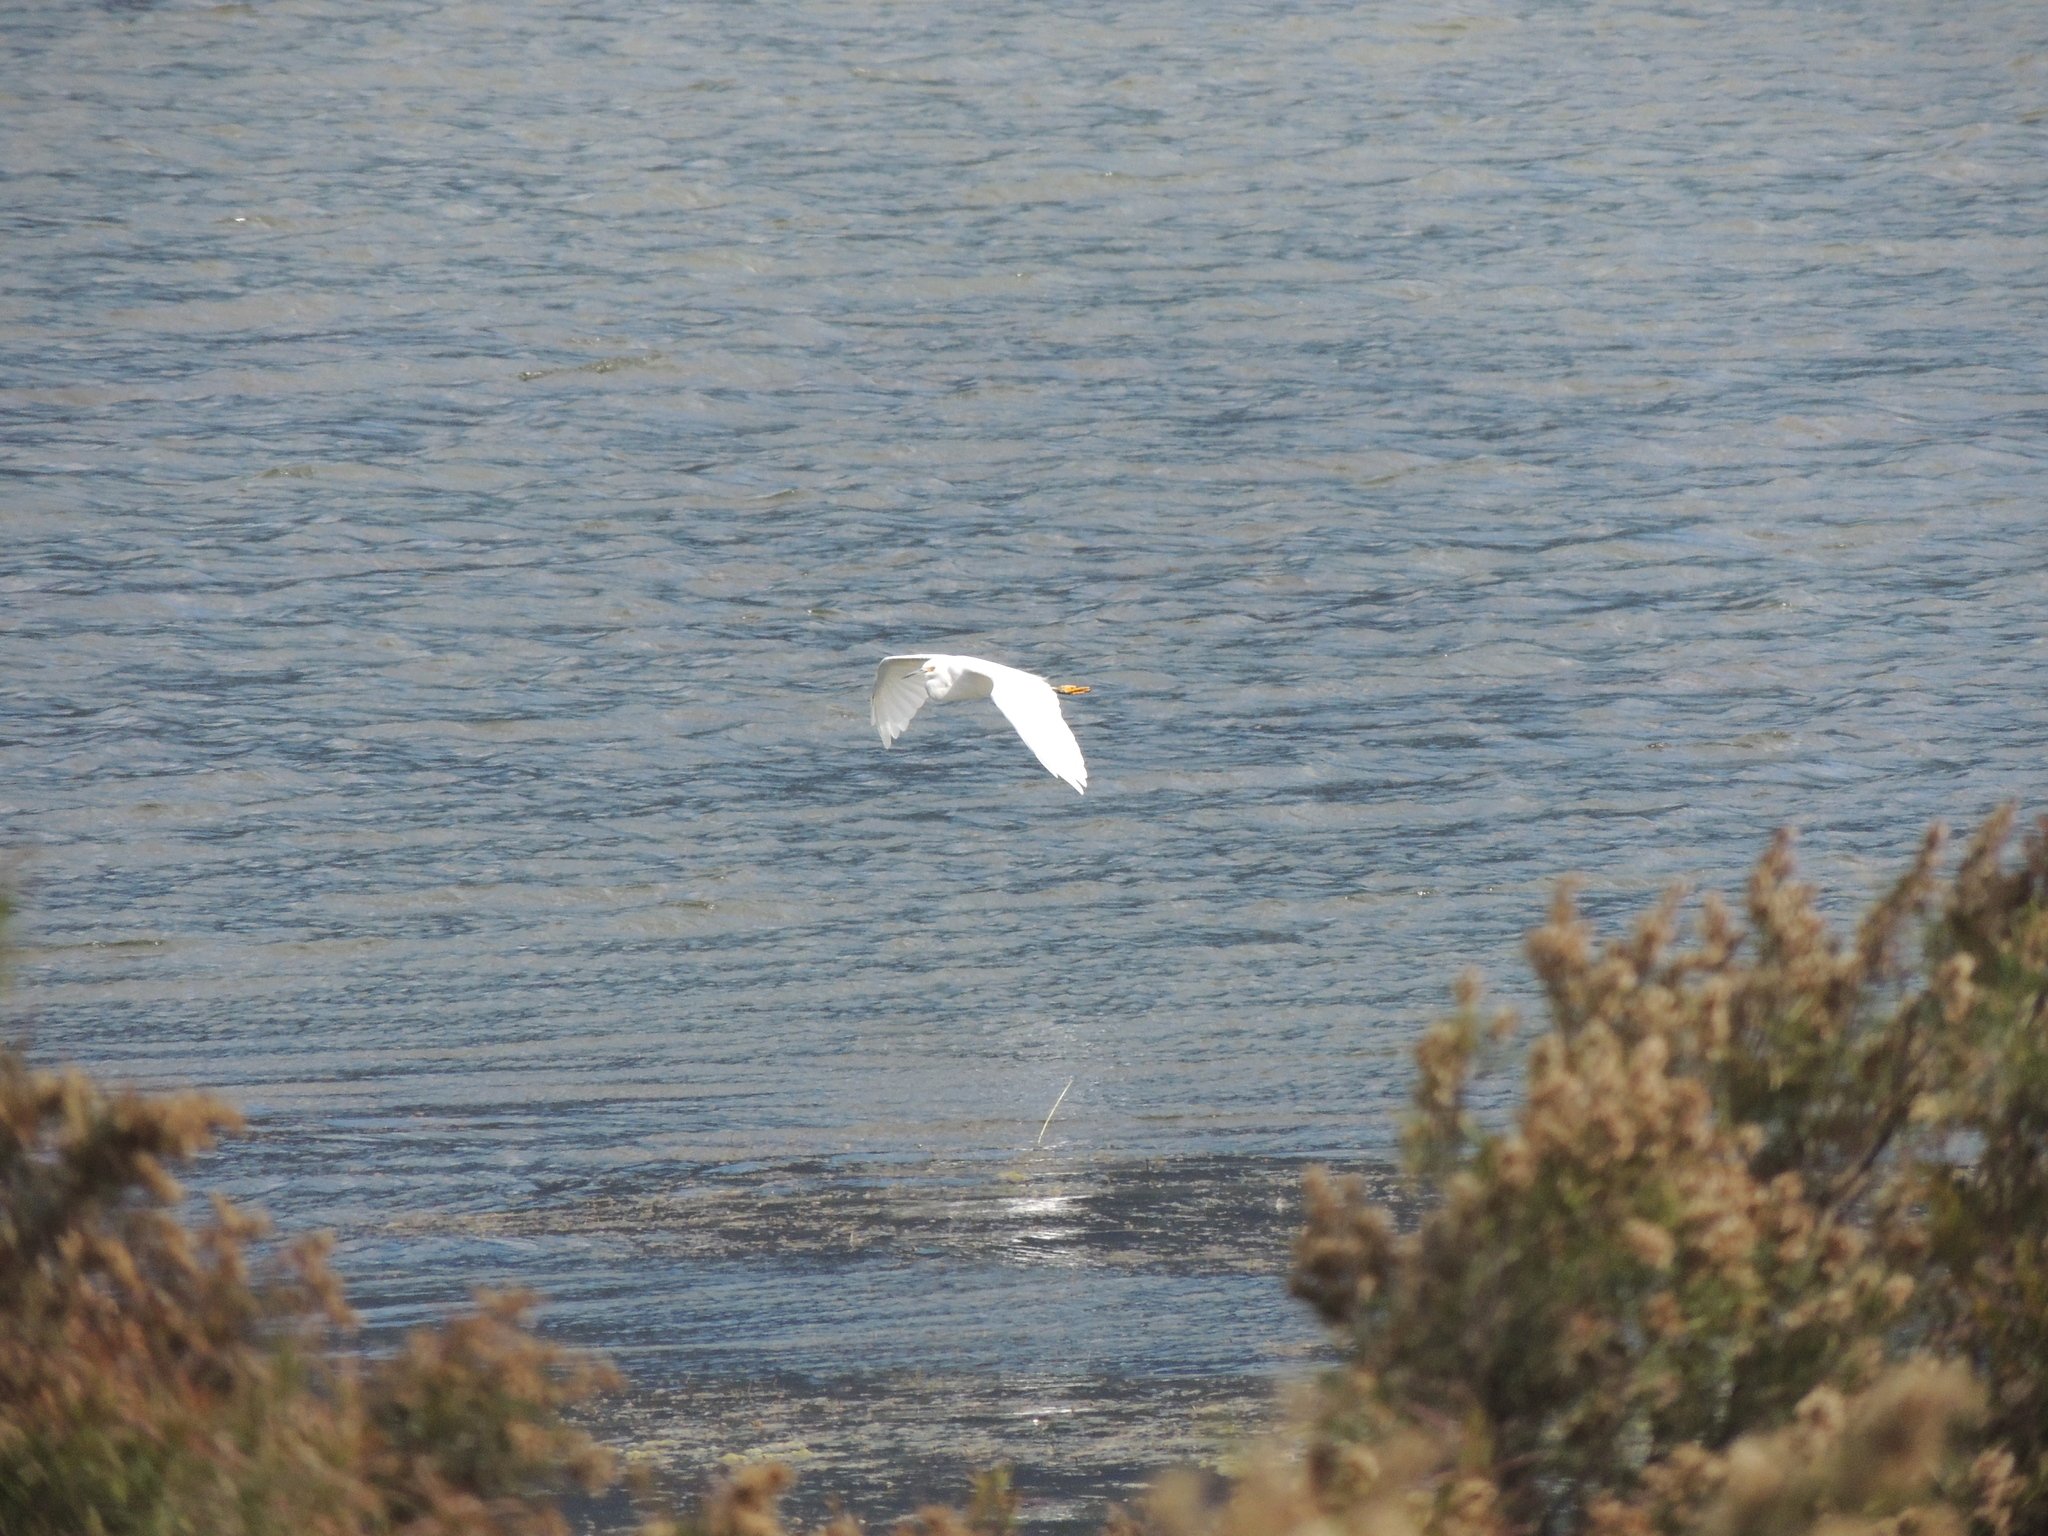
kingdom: Animalia
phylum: Chordata
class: Aves
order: Pelecaniformes
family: Ardeidae
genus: Egretta
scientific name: Egretta thula
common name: Snowy egret
